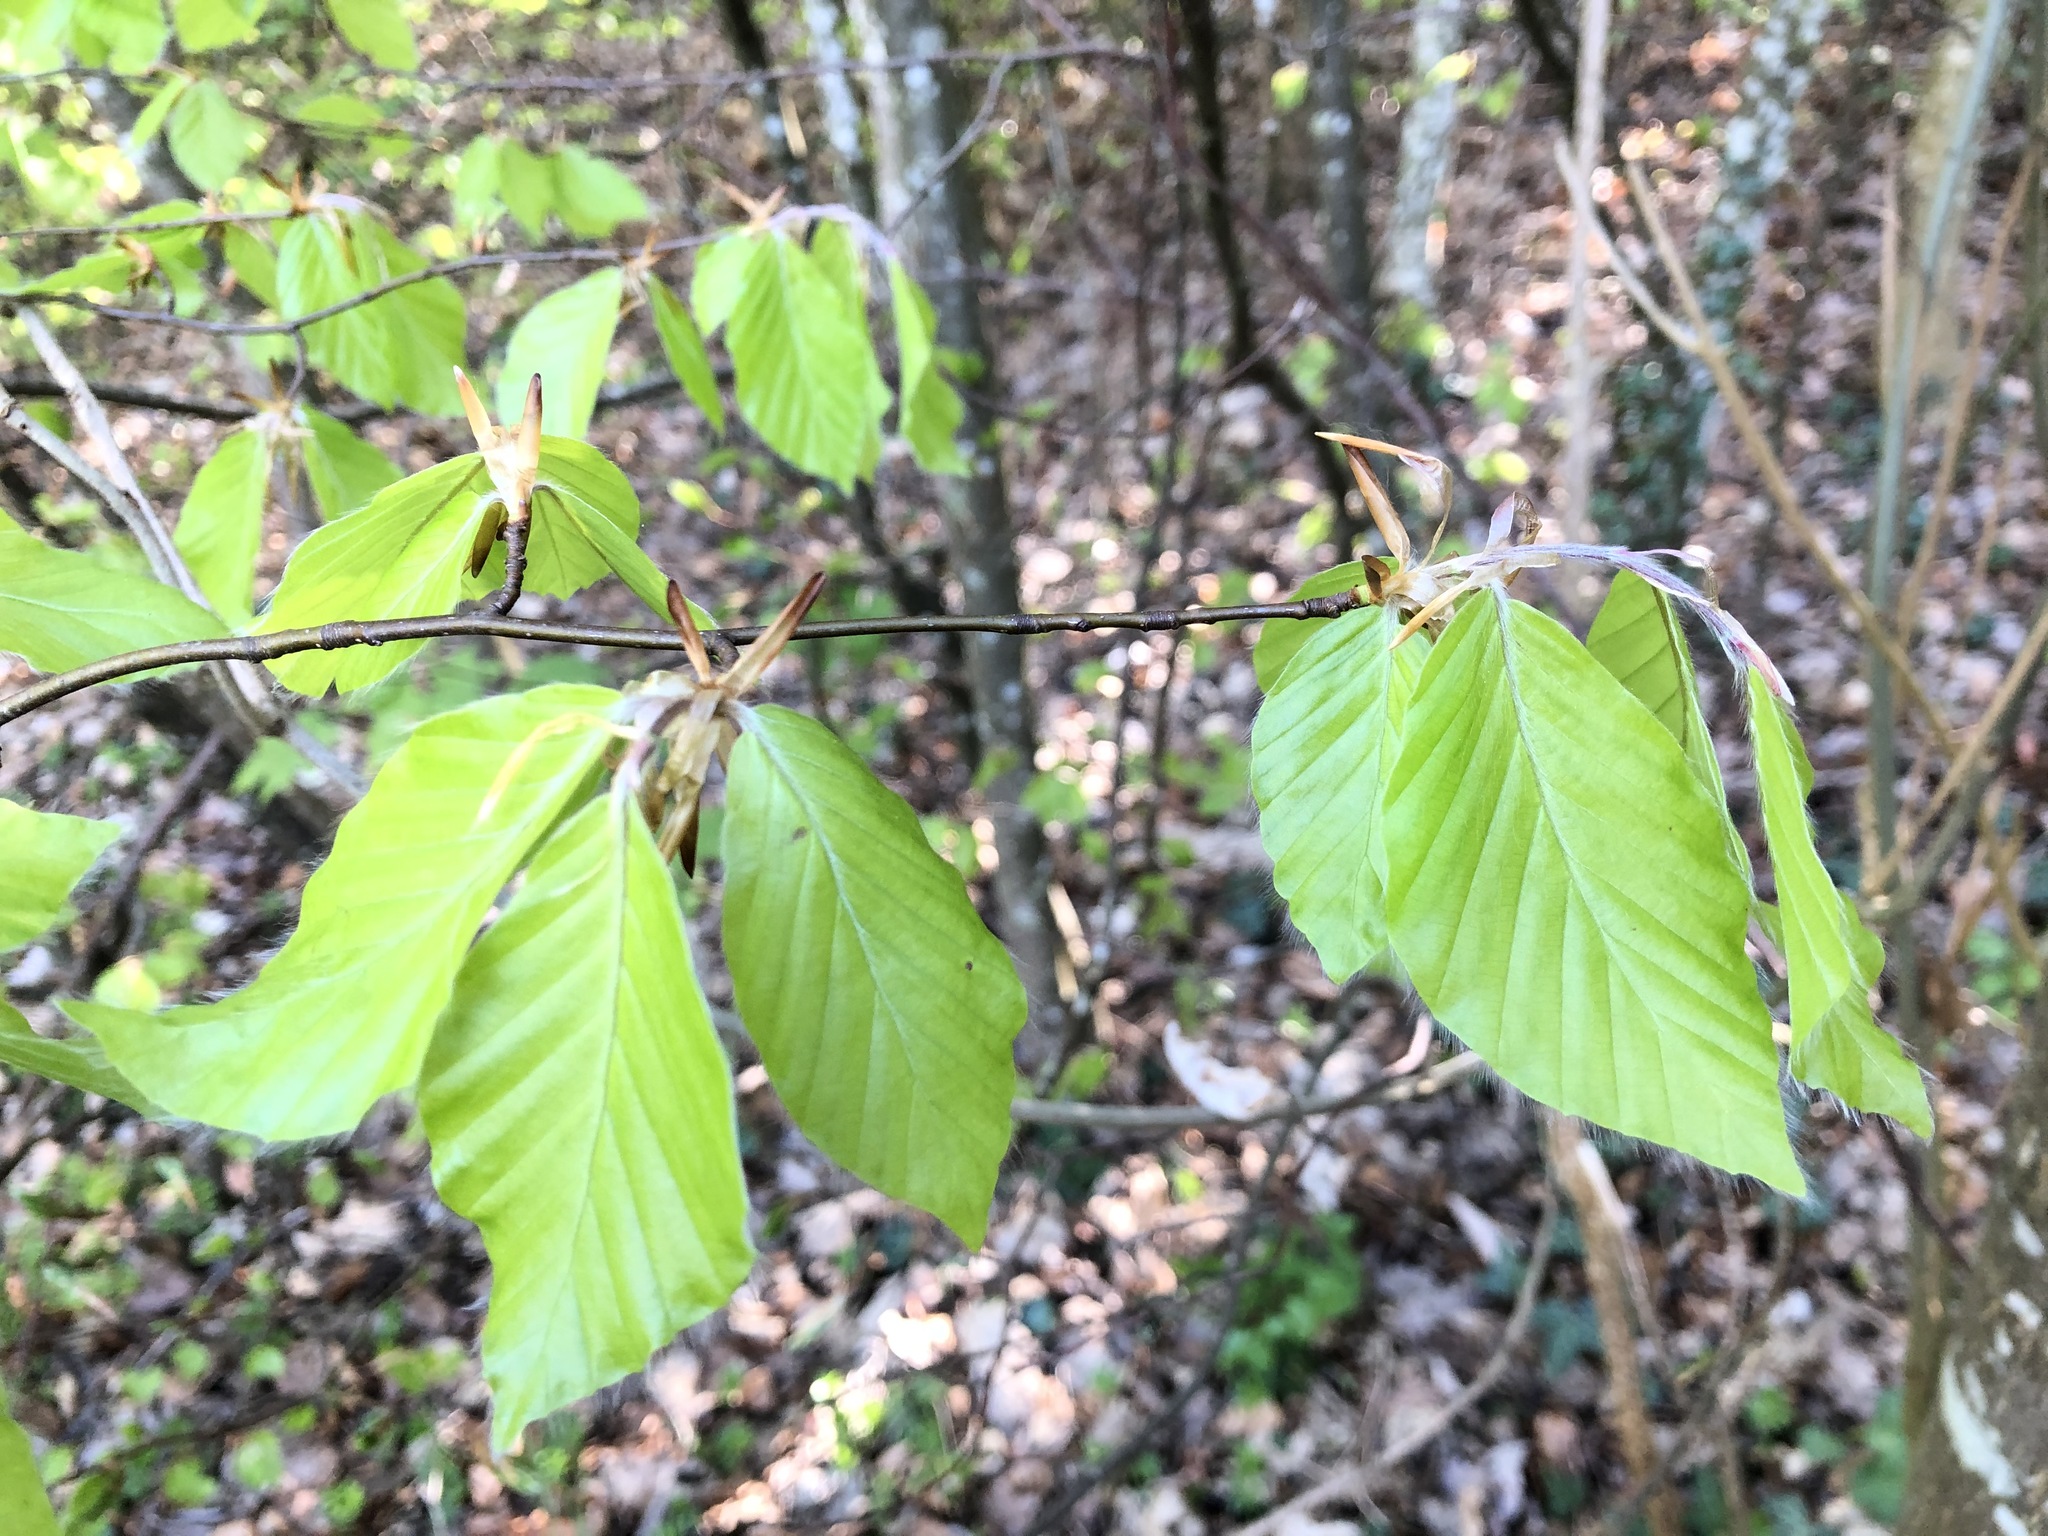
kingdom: Plantae
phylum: Tracheophyta
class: Magnoliopsida
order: Fagales
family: Fagaceae
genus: Fagus
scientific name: Fagus sylvatica
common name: Beech
